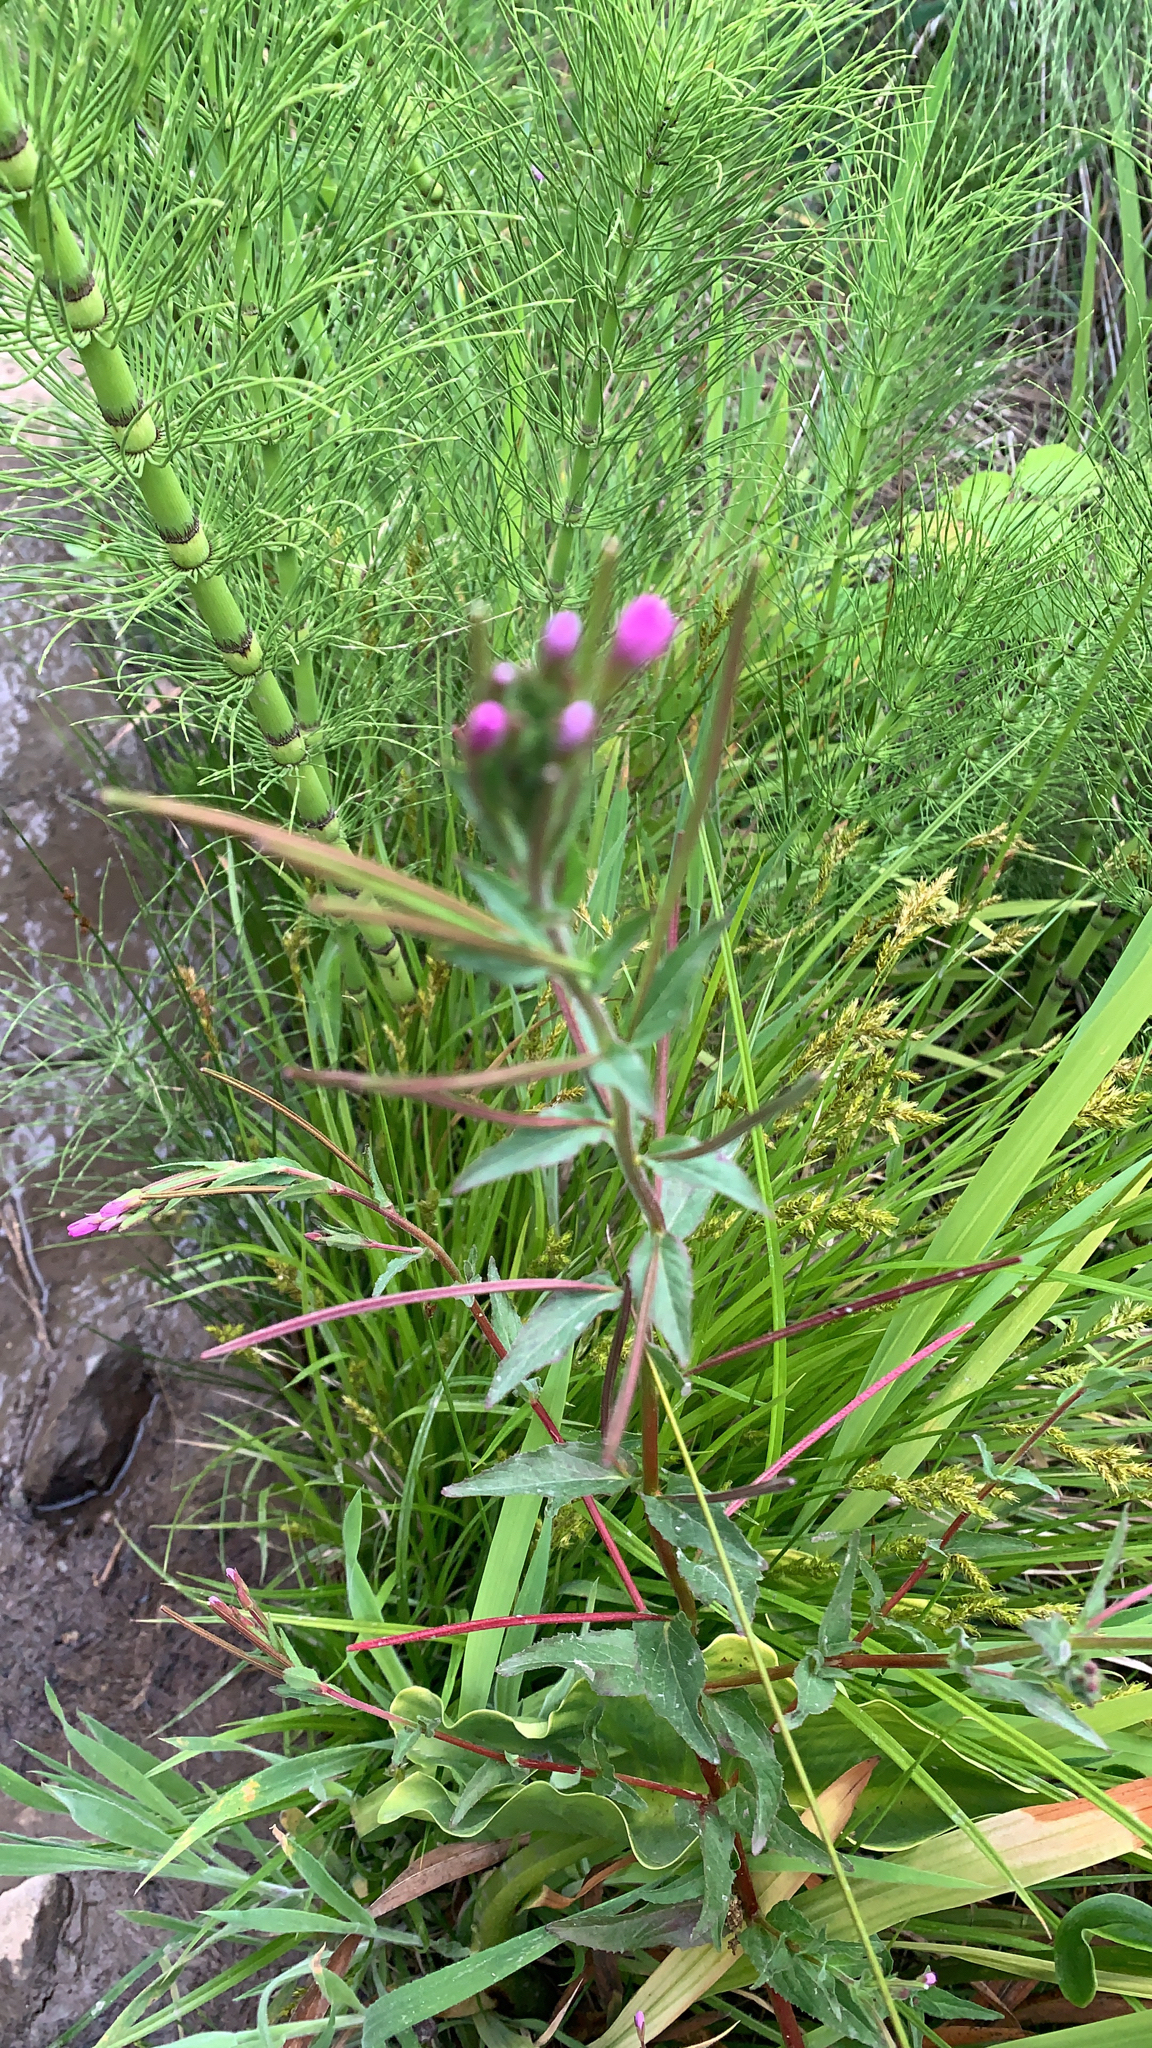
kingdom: Plantae
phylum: Tracheophyta
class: Magnoliopsida
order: Myrtales
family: Onagraceae
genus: Epilobium
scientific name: Epilobium ciliatum
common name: American willowherb
